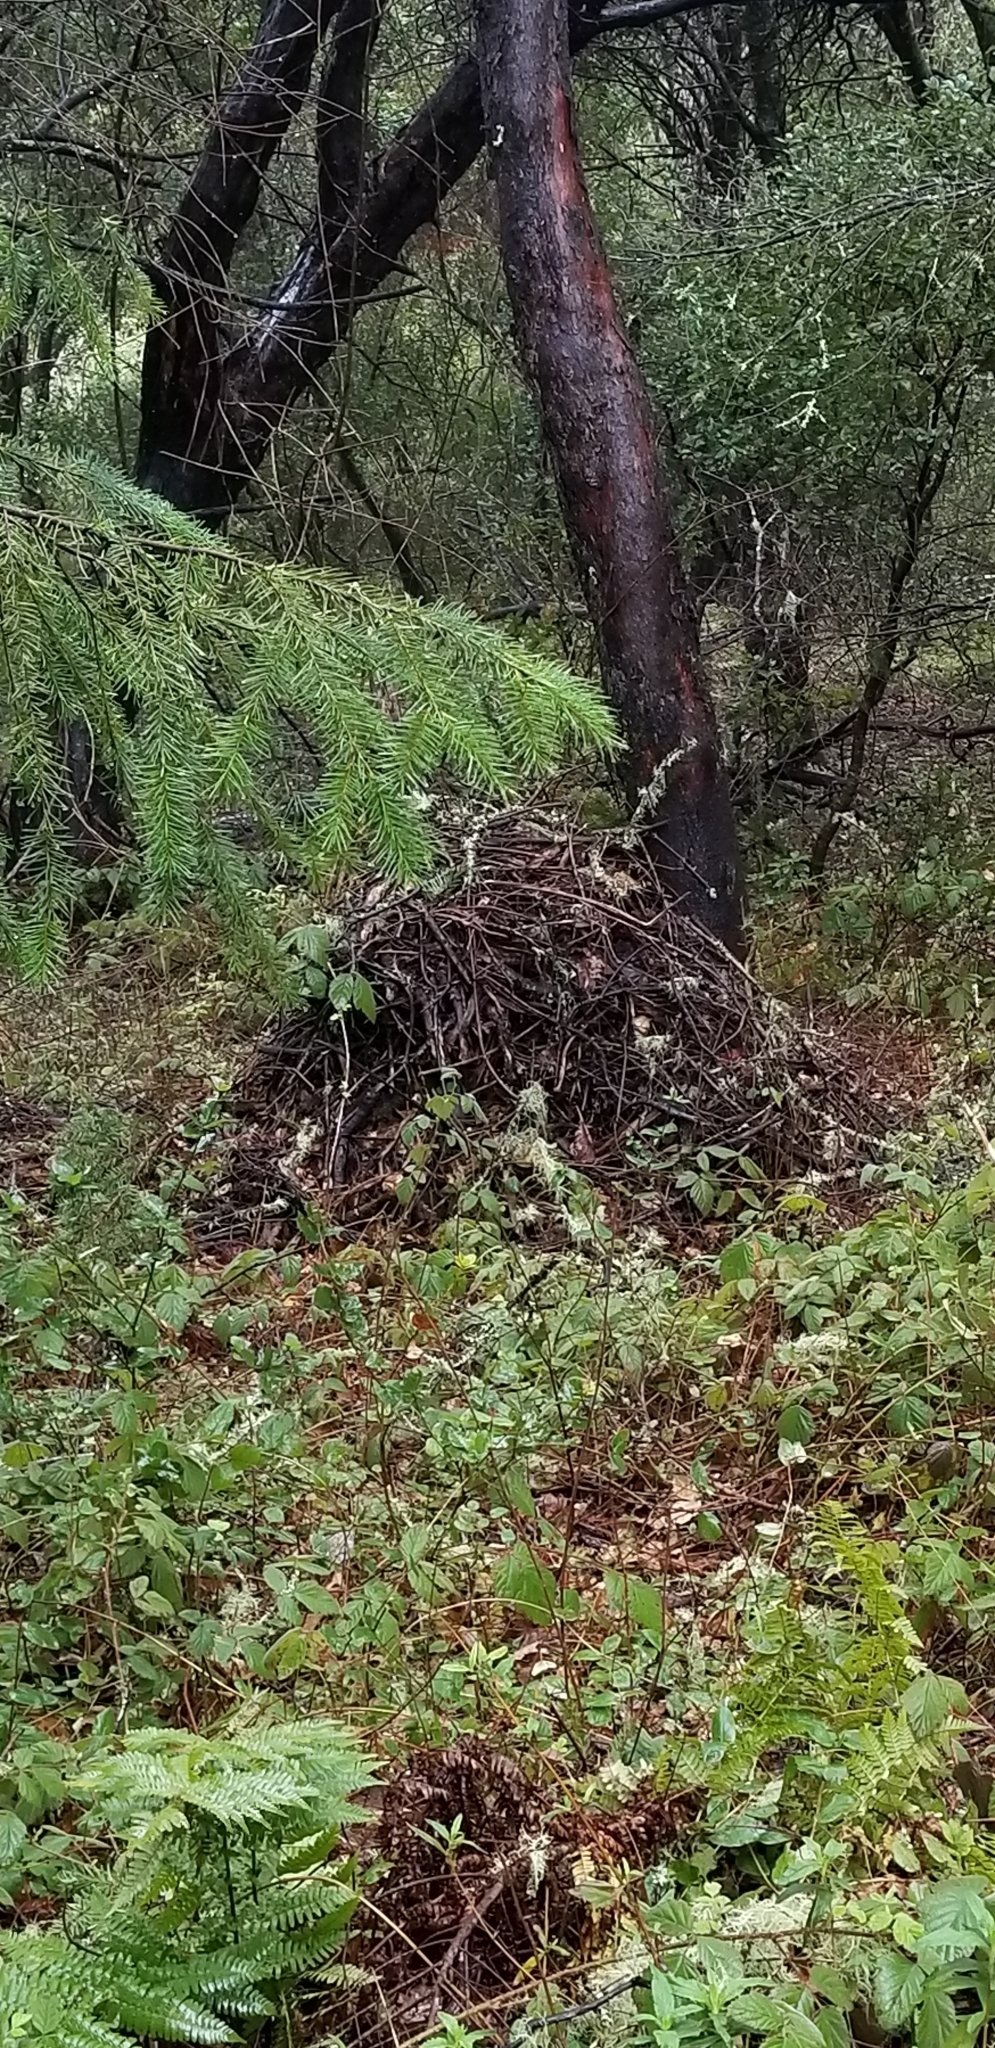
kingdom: Animalia
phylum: Chordata
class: Mammalia
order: Rodentia
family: Cricetidae
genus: Neotoma
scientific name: Neotoma fuscipes
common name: Dusky-footed woodrat
